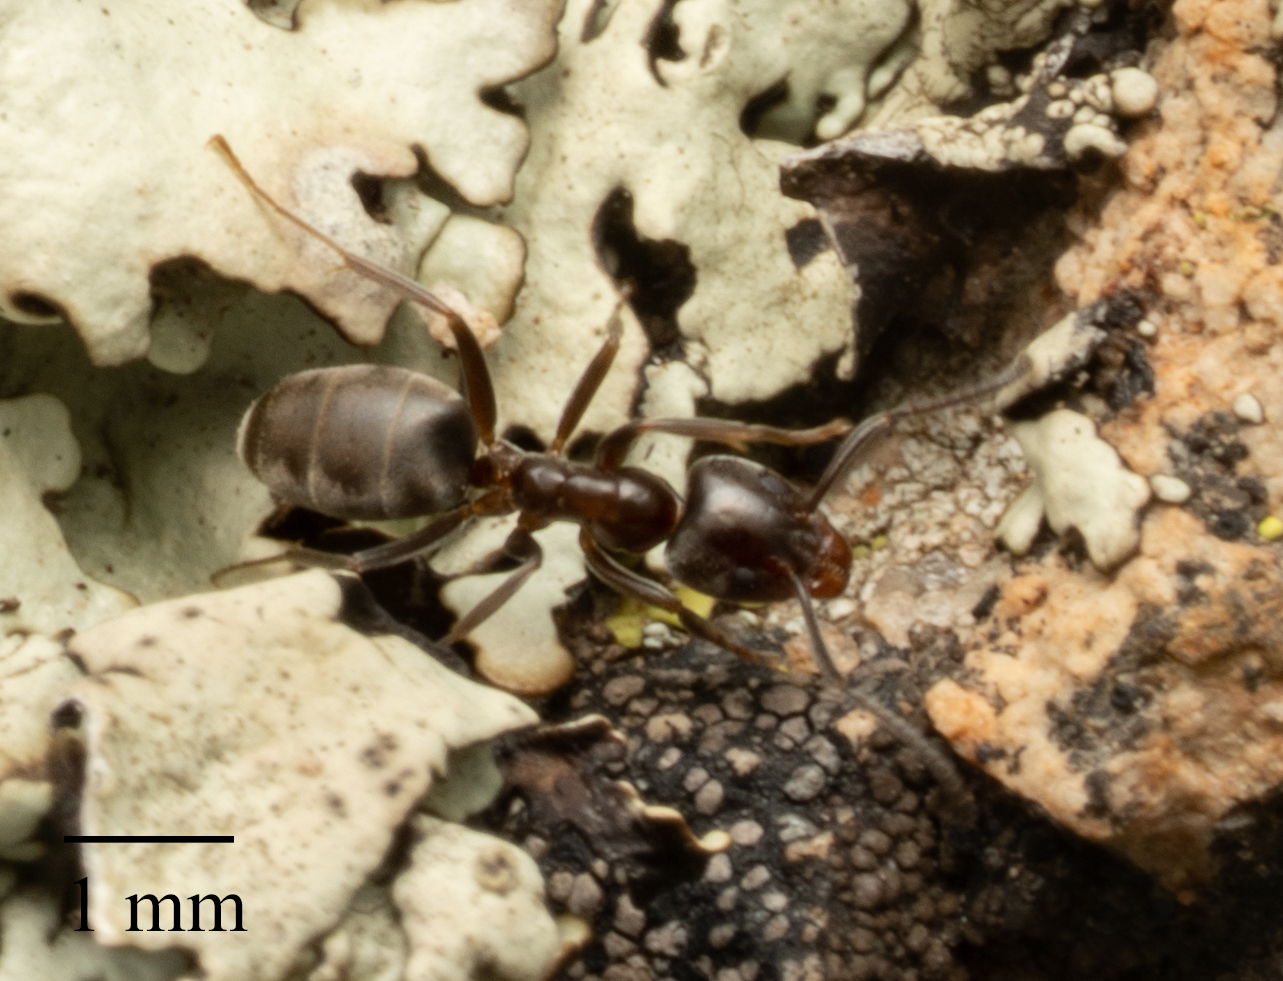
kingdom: Animalia
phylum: Arthropoda
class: Insecta
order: Hymenoptera
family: Formicidae
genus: Liometopum
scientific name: Liometopum luctuosum
